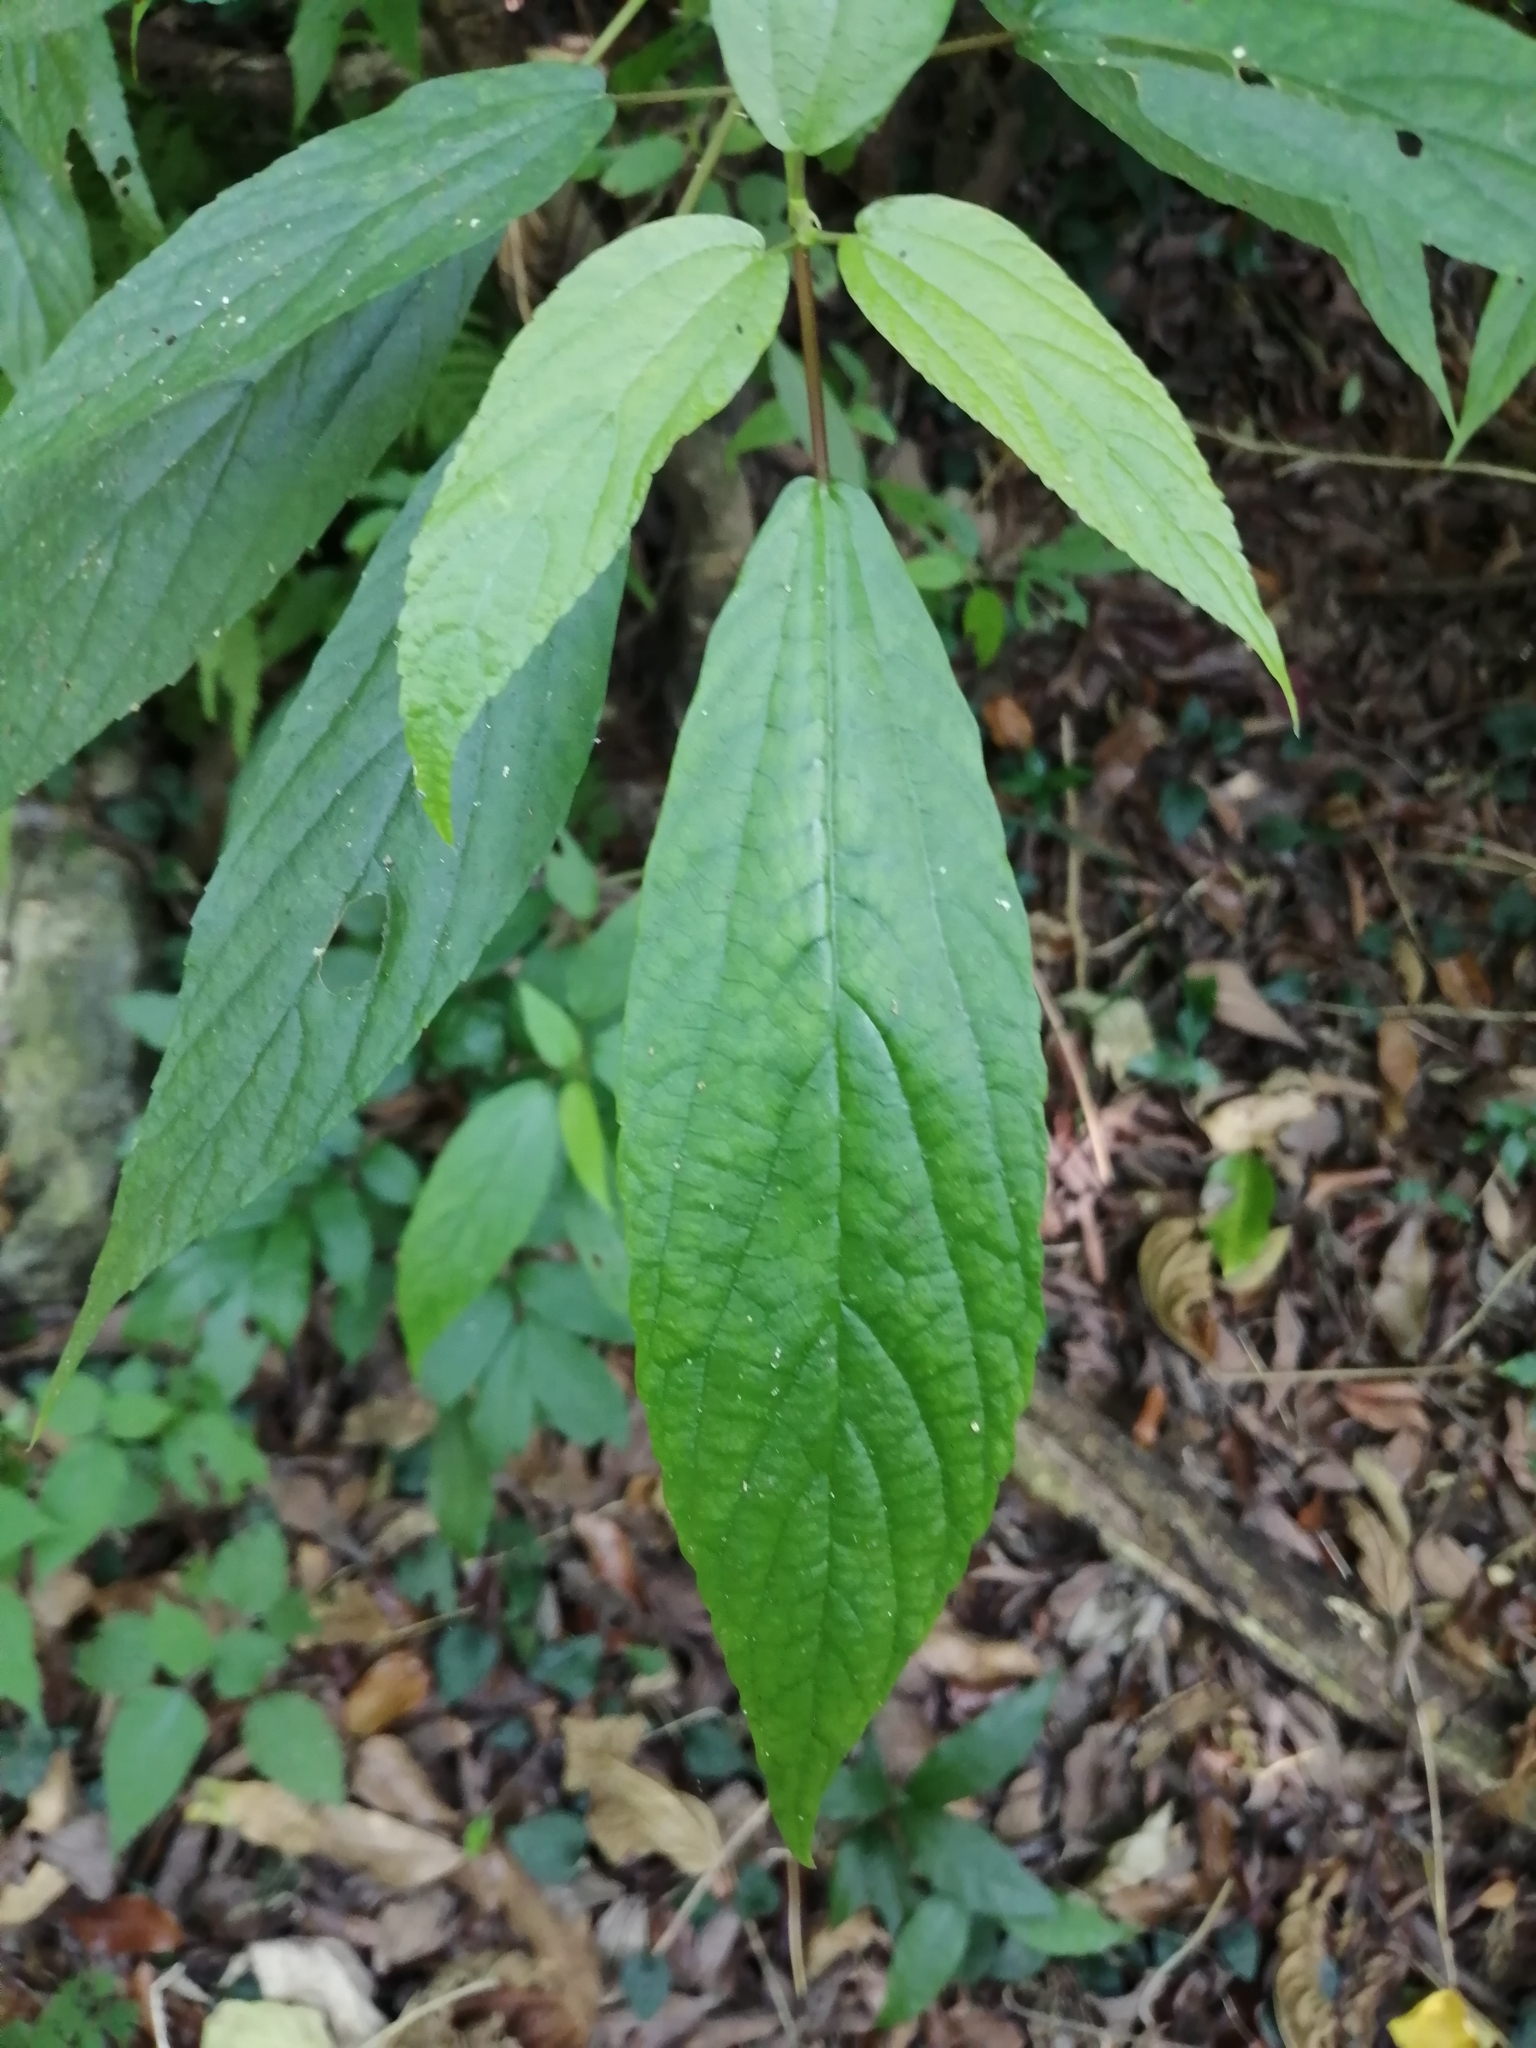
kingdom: Plantae
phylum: Tracheophyta
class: Magnoliopsida
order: Rosales
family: Urticaceae
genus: Oreocnide
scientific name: Oreocnide pedunculata
